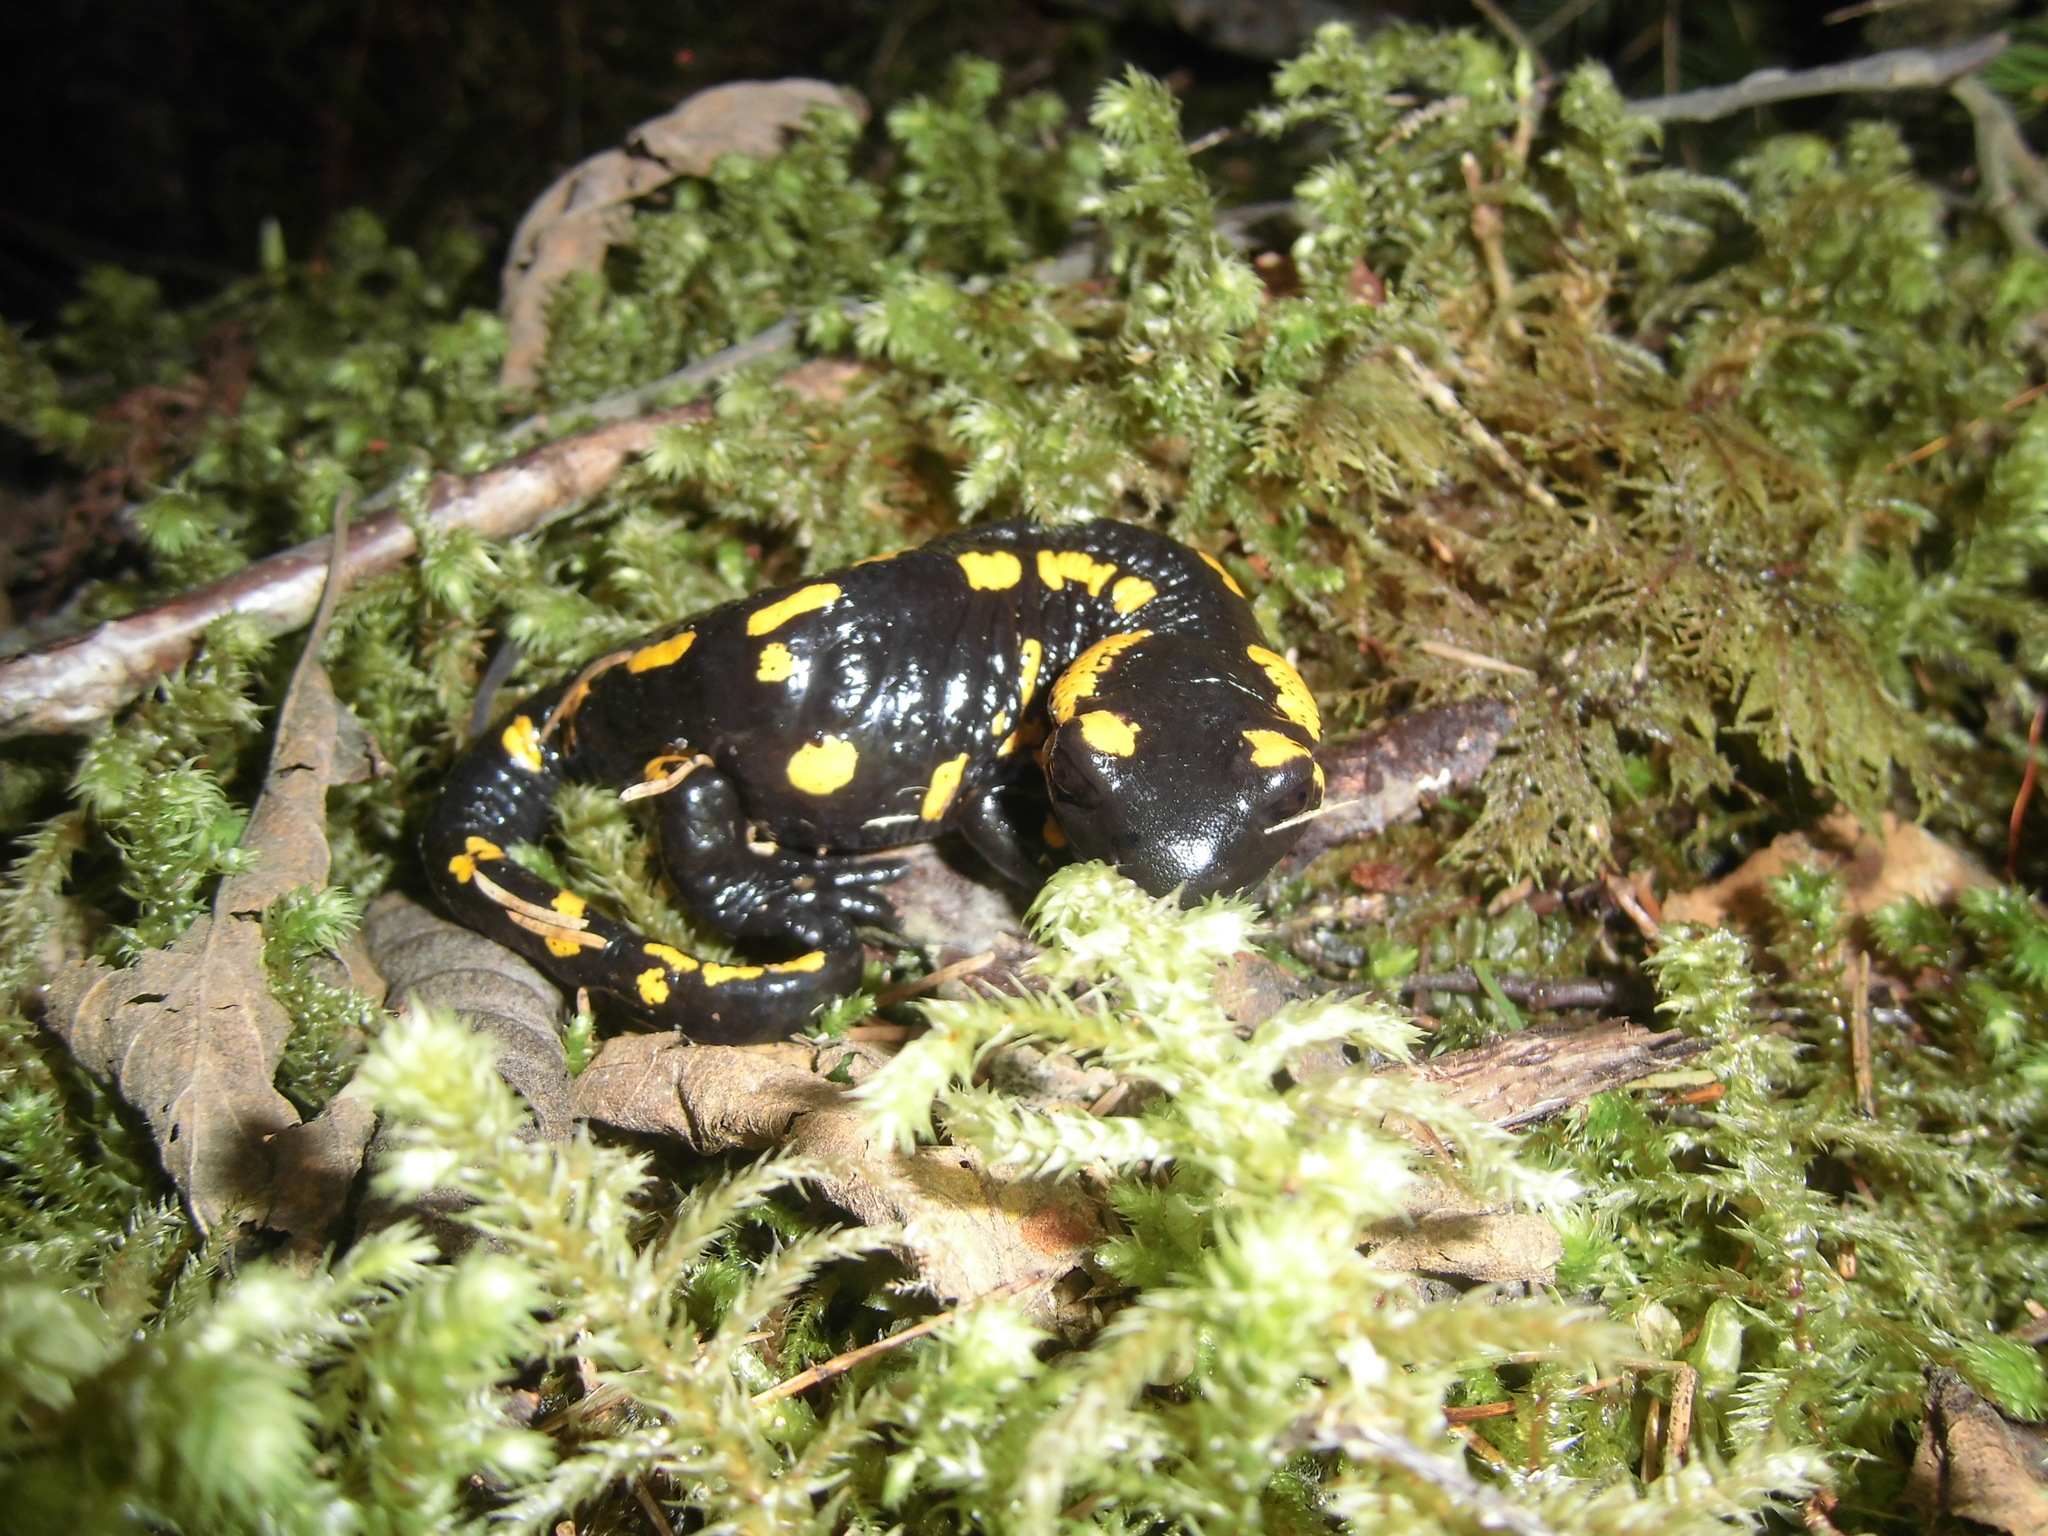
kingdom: Animalia
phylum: Chordata
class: Amphibia
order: Caudata
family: Salamandridae
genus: Salamandra
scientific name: Salamandra salamandra
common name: Fire salamander
